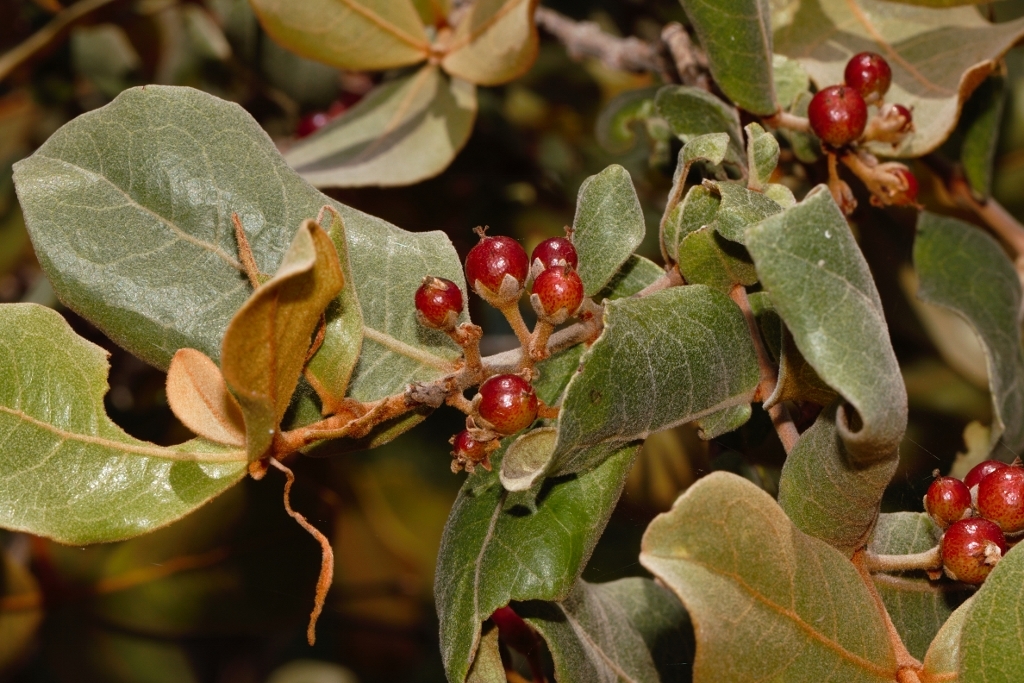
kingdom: Plantae
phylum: Tracheophyta
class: Magnoliopsida
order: Malpighiales
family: Hypericaceae
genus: Psorospermum
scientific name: Psorospermum febrifugum
